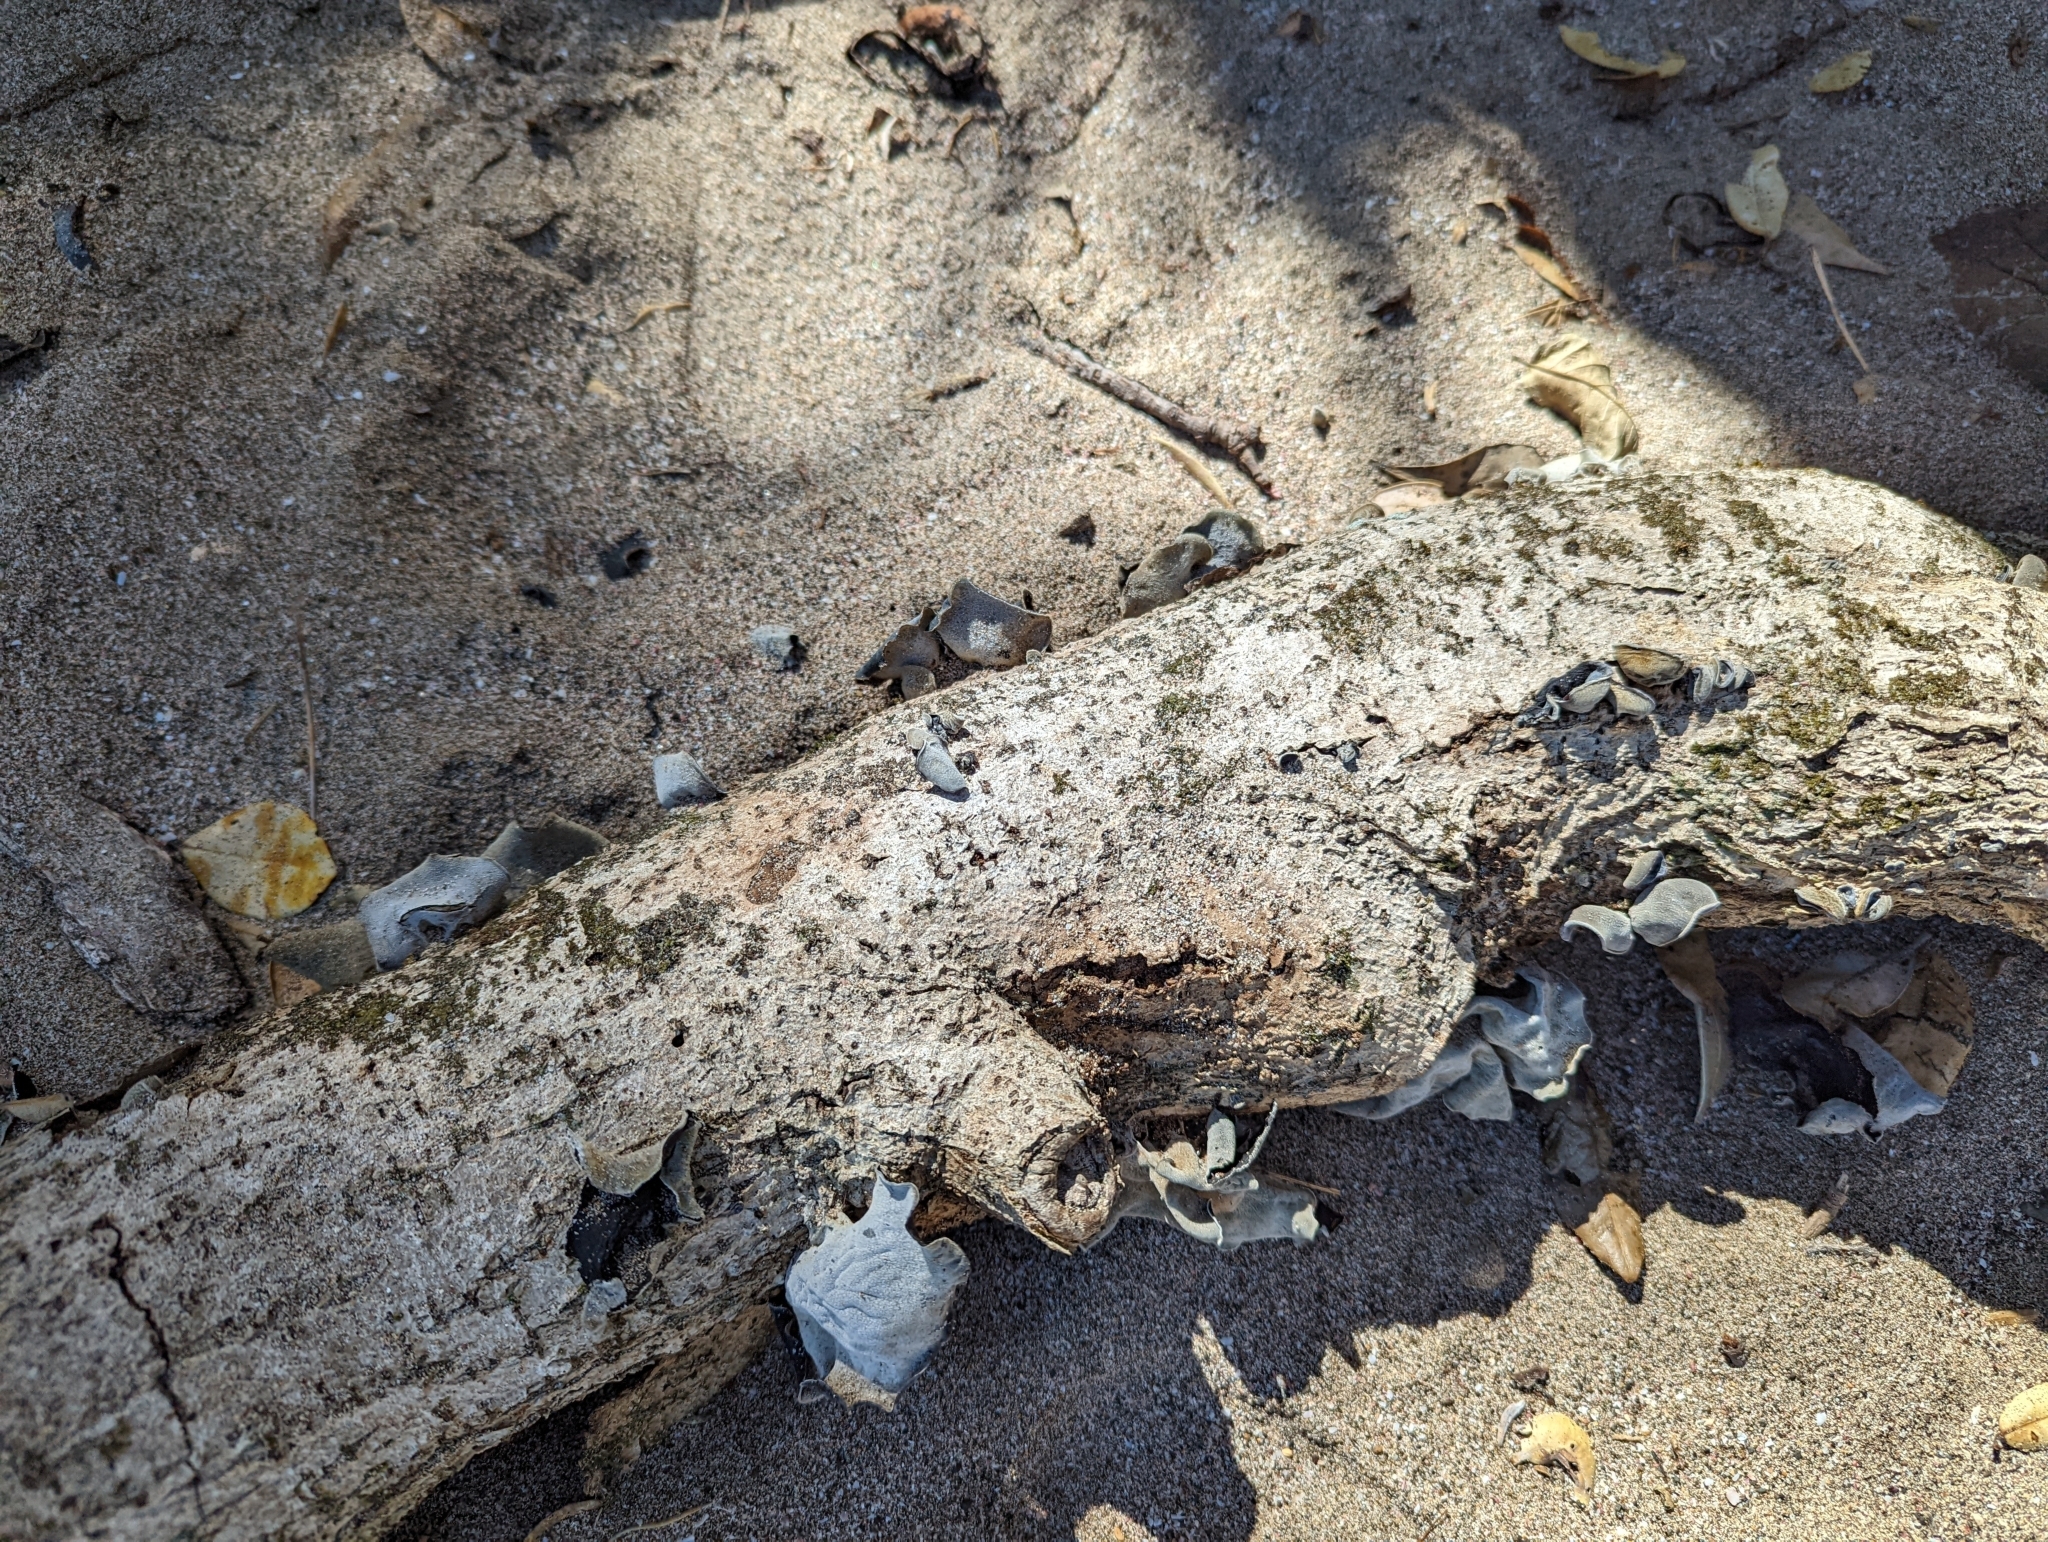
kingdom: Fungi
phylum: Basidiomycota
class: Agaricomycetes
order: Auriculariales
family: Auriculariaceae
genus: Auricularia
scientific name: Auricularia cornea
